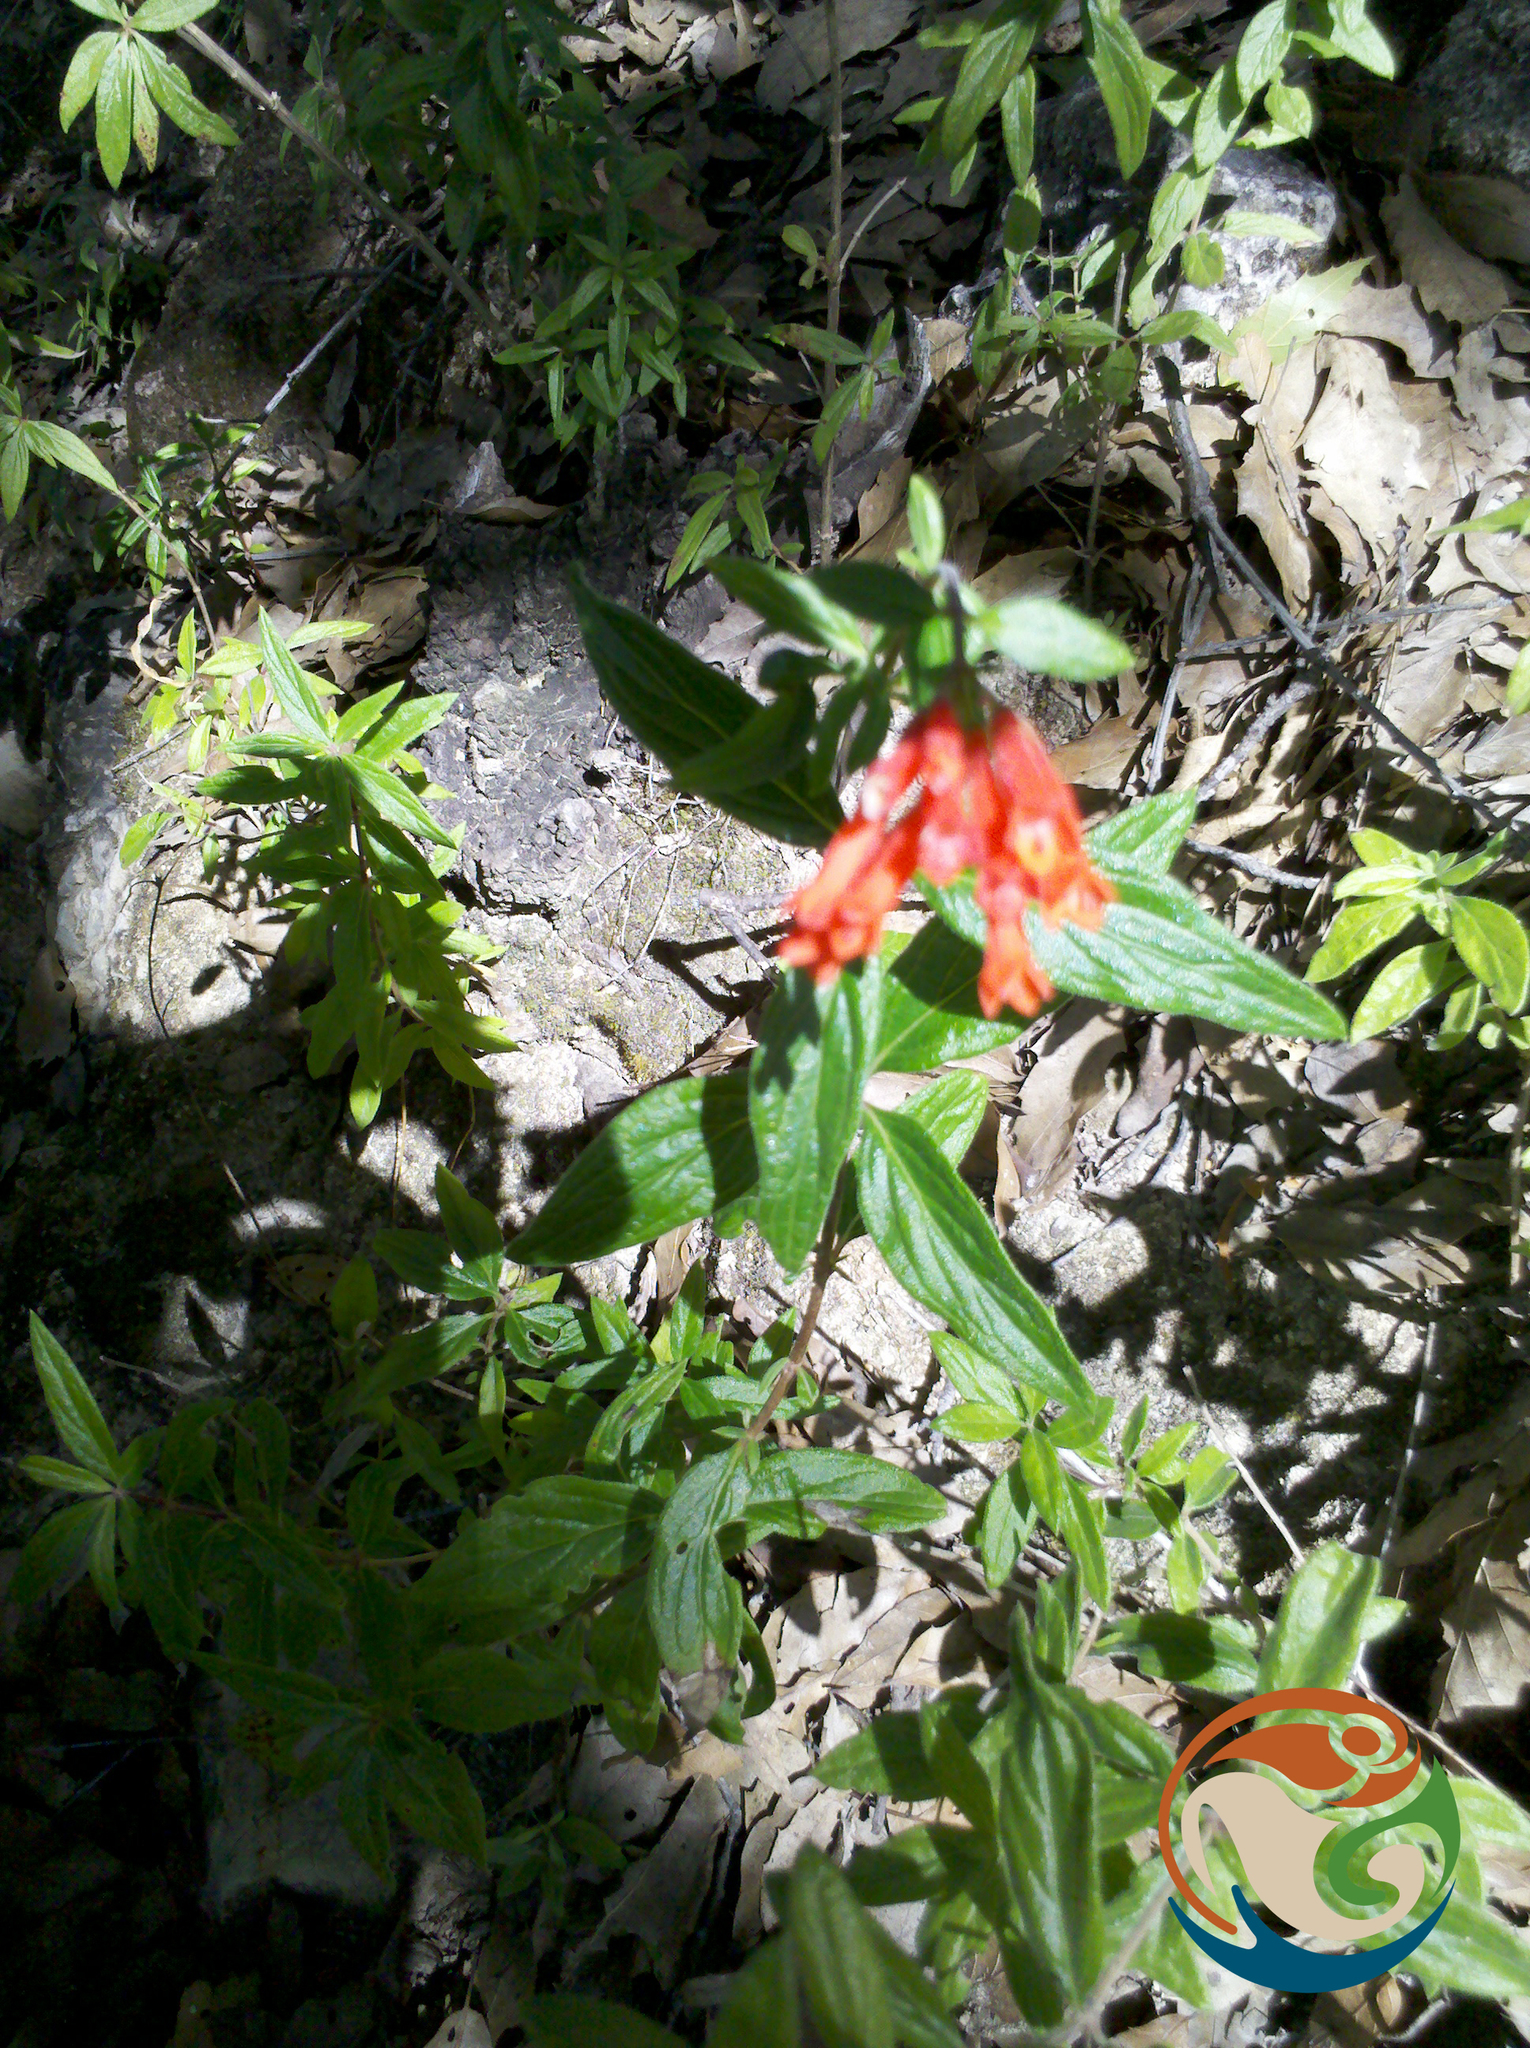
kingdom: Plantae
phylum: Tracheophyta
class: Magnoliopsida
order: Gentianales
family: Rubiaceae
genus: Bouvardia
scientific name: Bouvardia ternifolia
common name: Scarlet bouvardia
